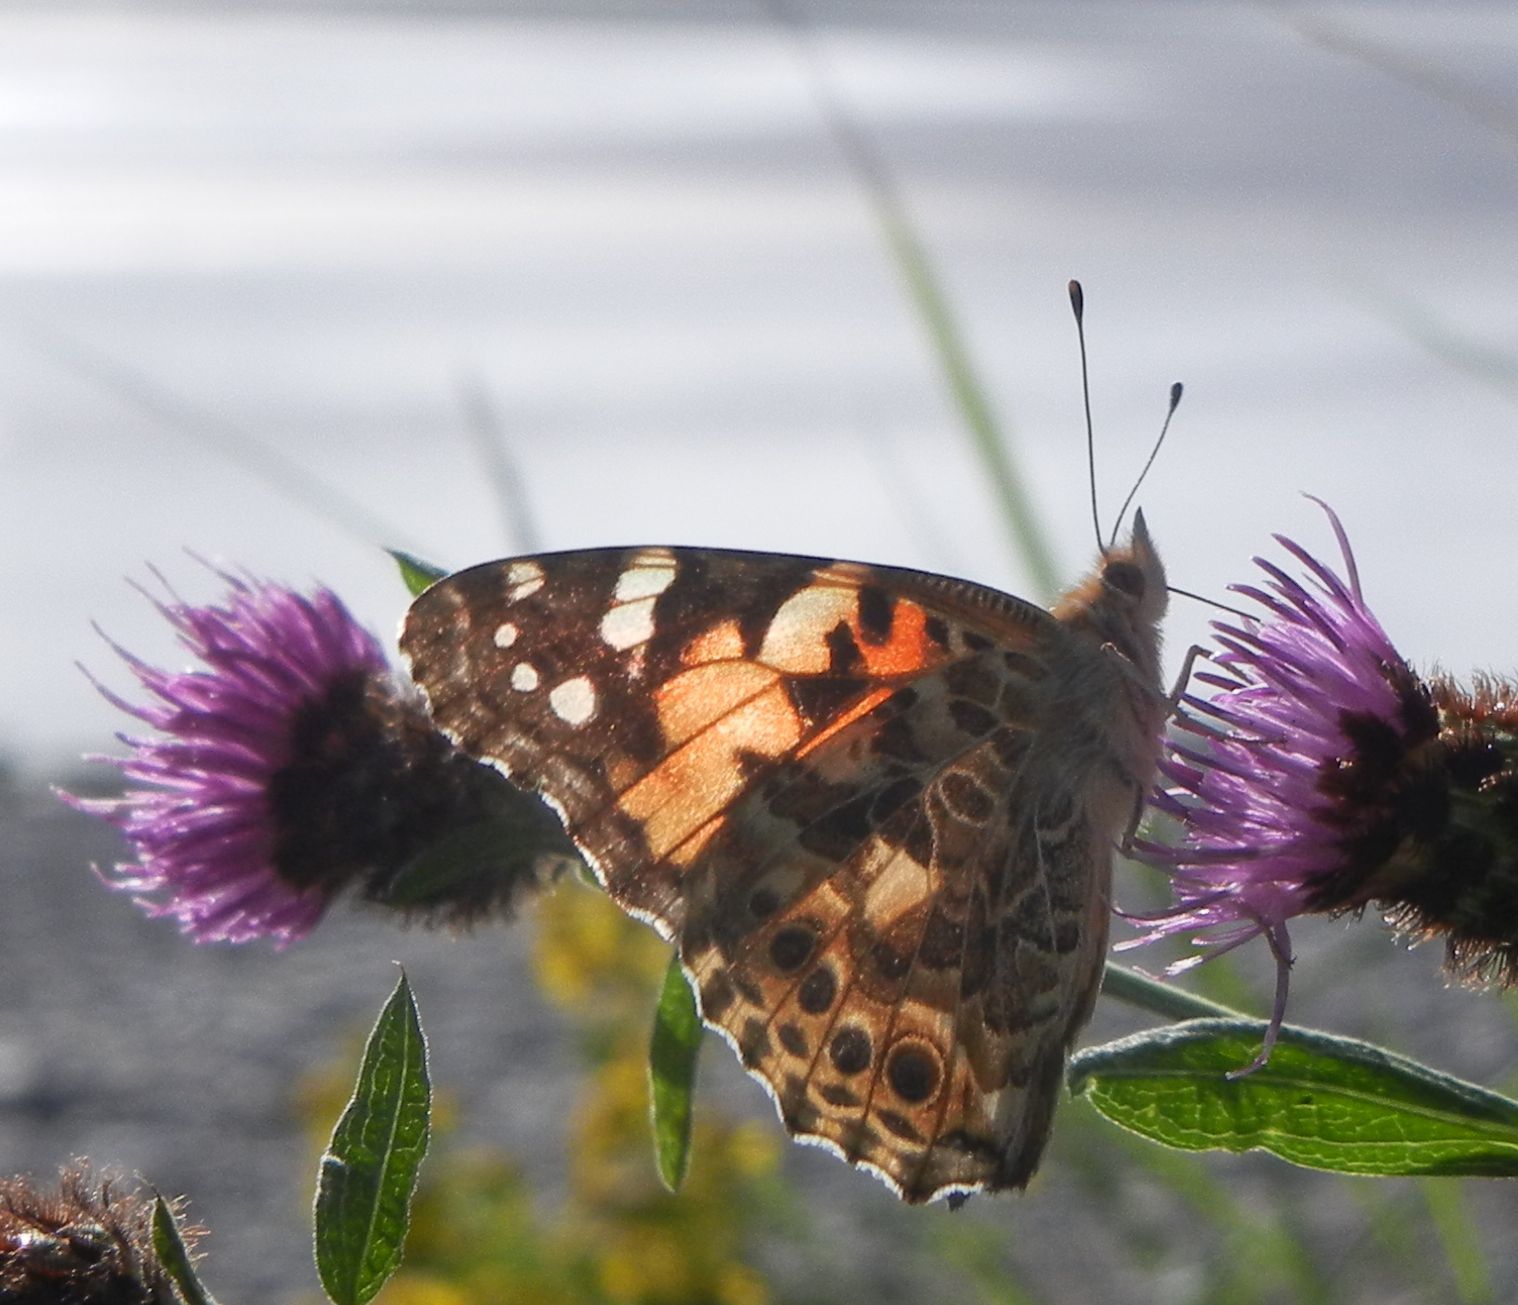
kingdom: Animalia
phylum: Arthropoda
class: Insecta
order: Lepidoptera
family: Nymphalidae
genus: Vanessa
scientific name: Vanessa cardui
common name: Painted lady
